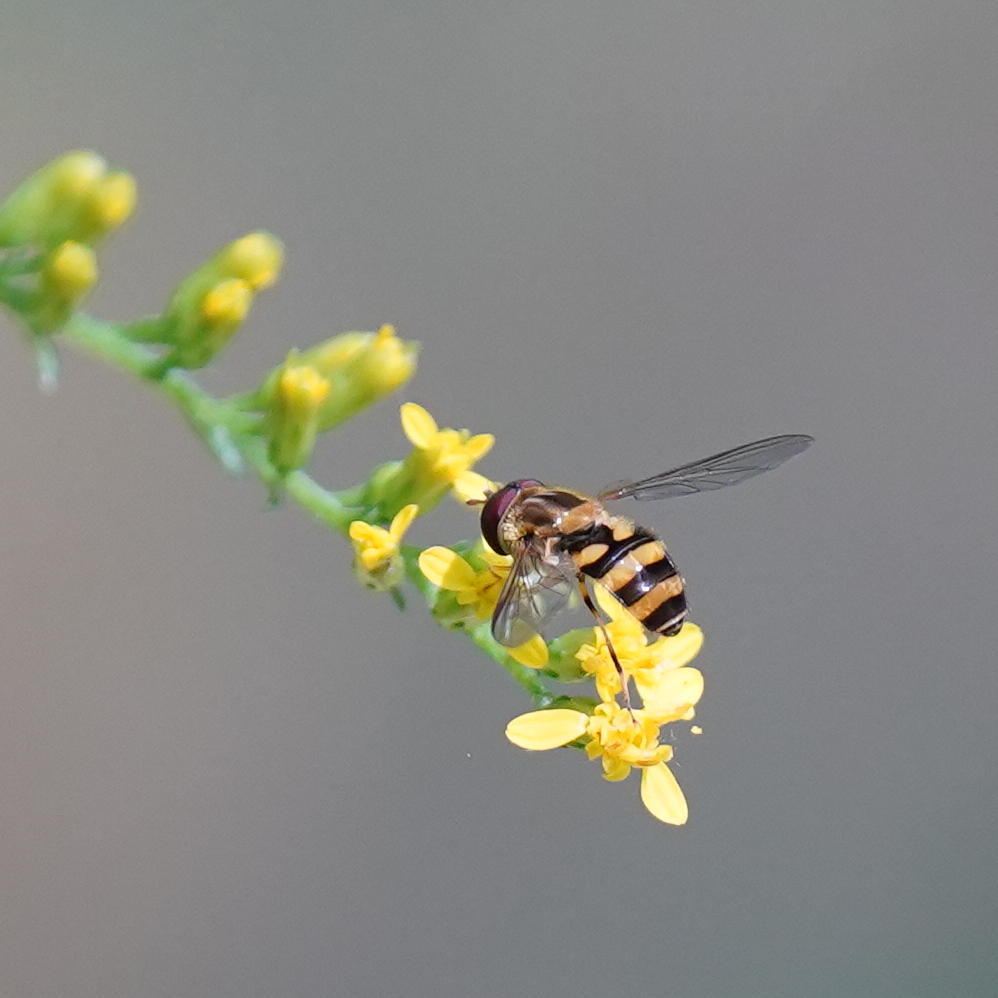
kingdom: Animalia
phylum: Arthropoda
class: Insecta
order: Diptera
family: Syrphidae
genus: Syrphus
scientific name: Syrphus knabi
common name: Eastern flower fly
